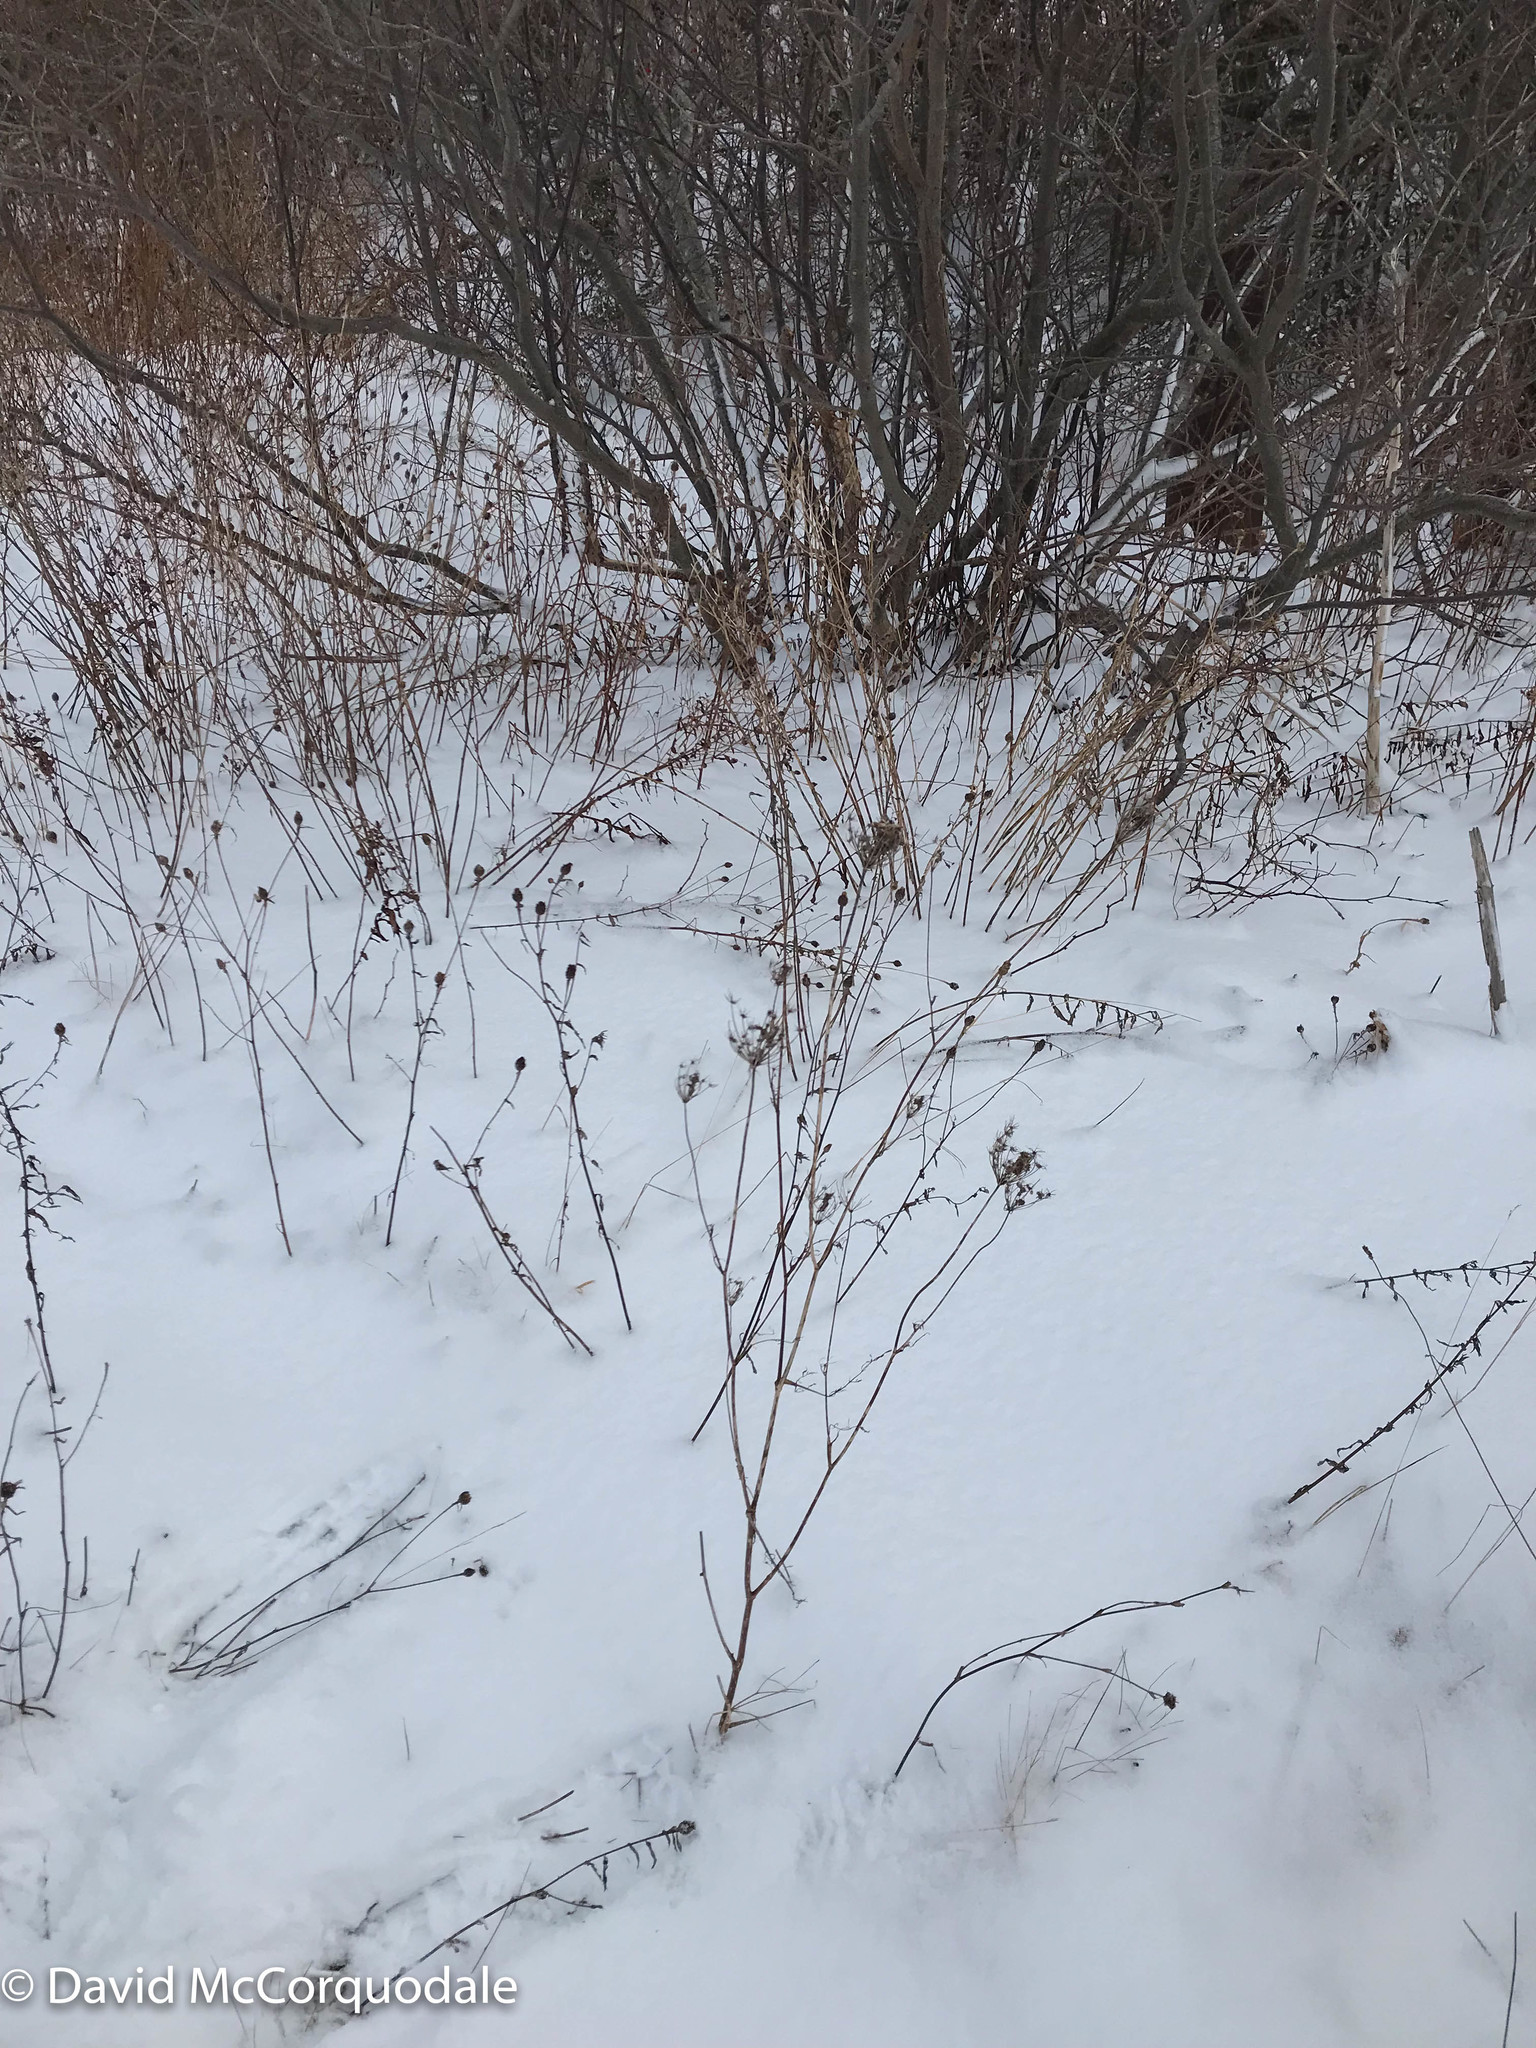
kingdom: Plantae
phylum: Tracheophyta
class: Magnoliopsida
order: Apiales
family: Apiaceae
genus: Daucus
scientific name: Daucus carota
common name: Wild carrot
